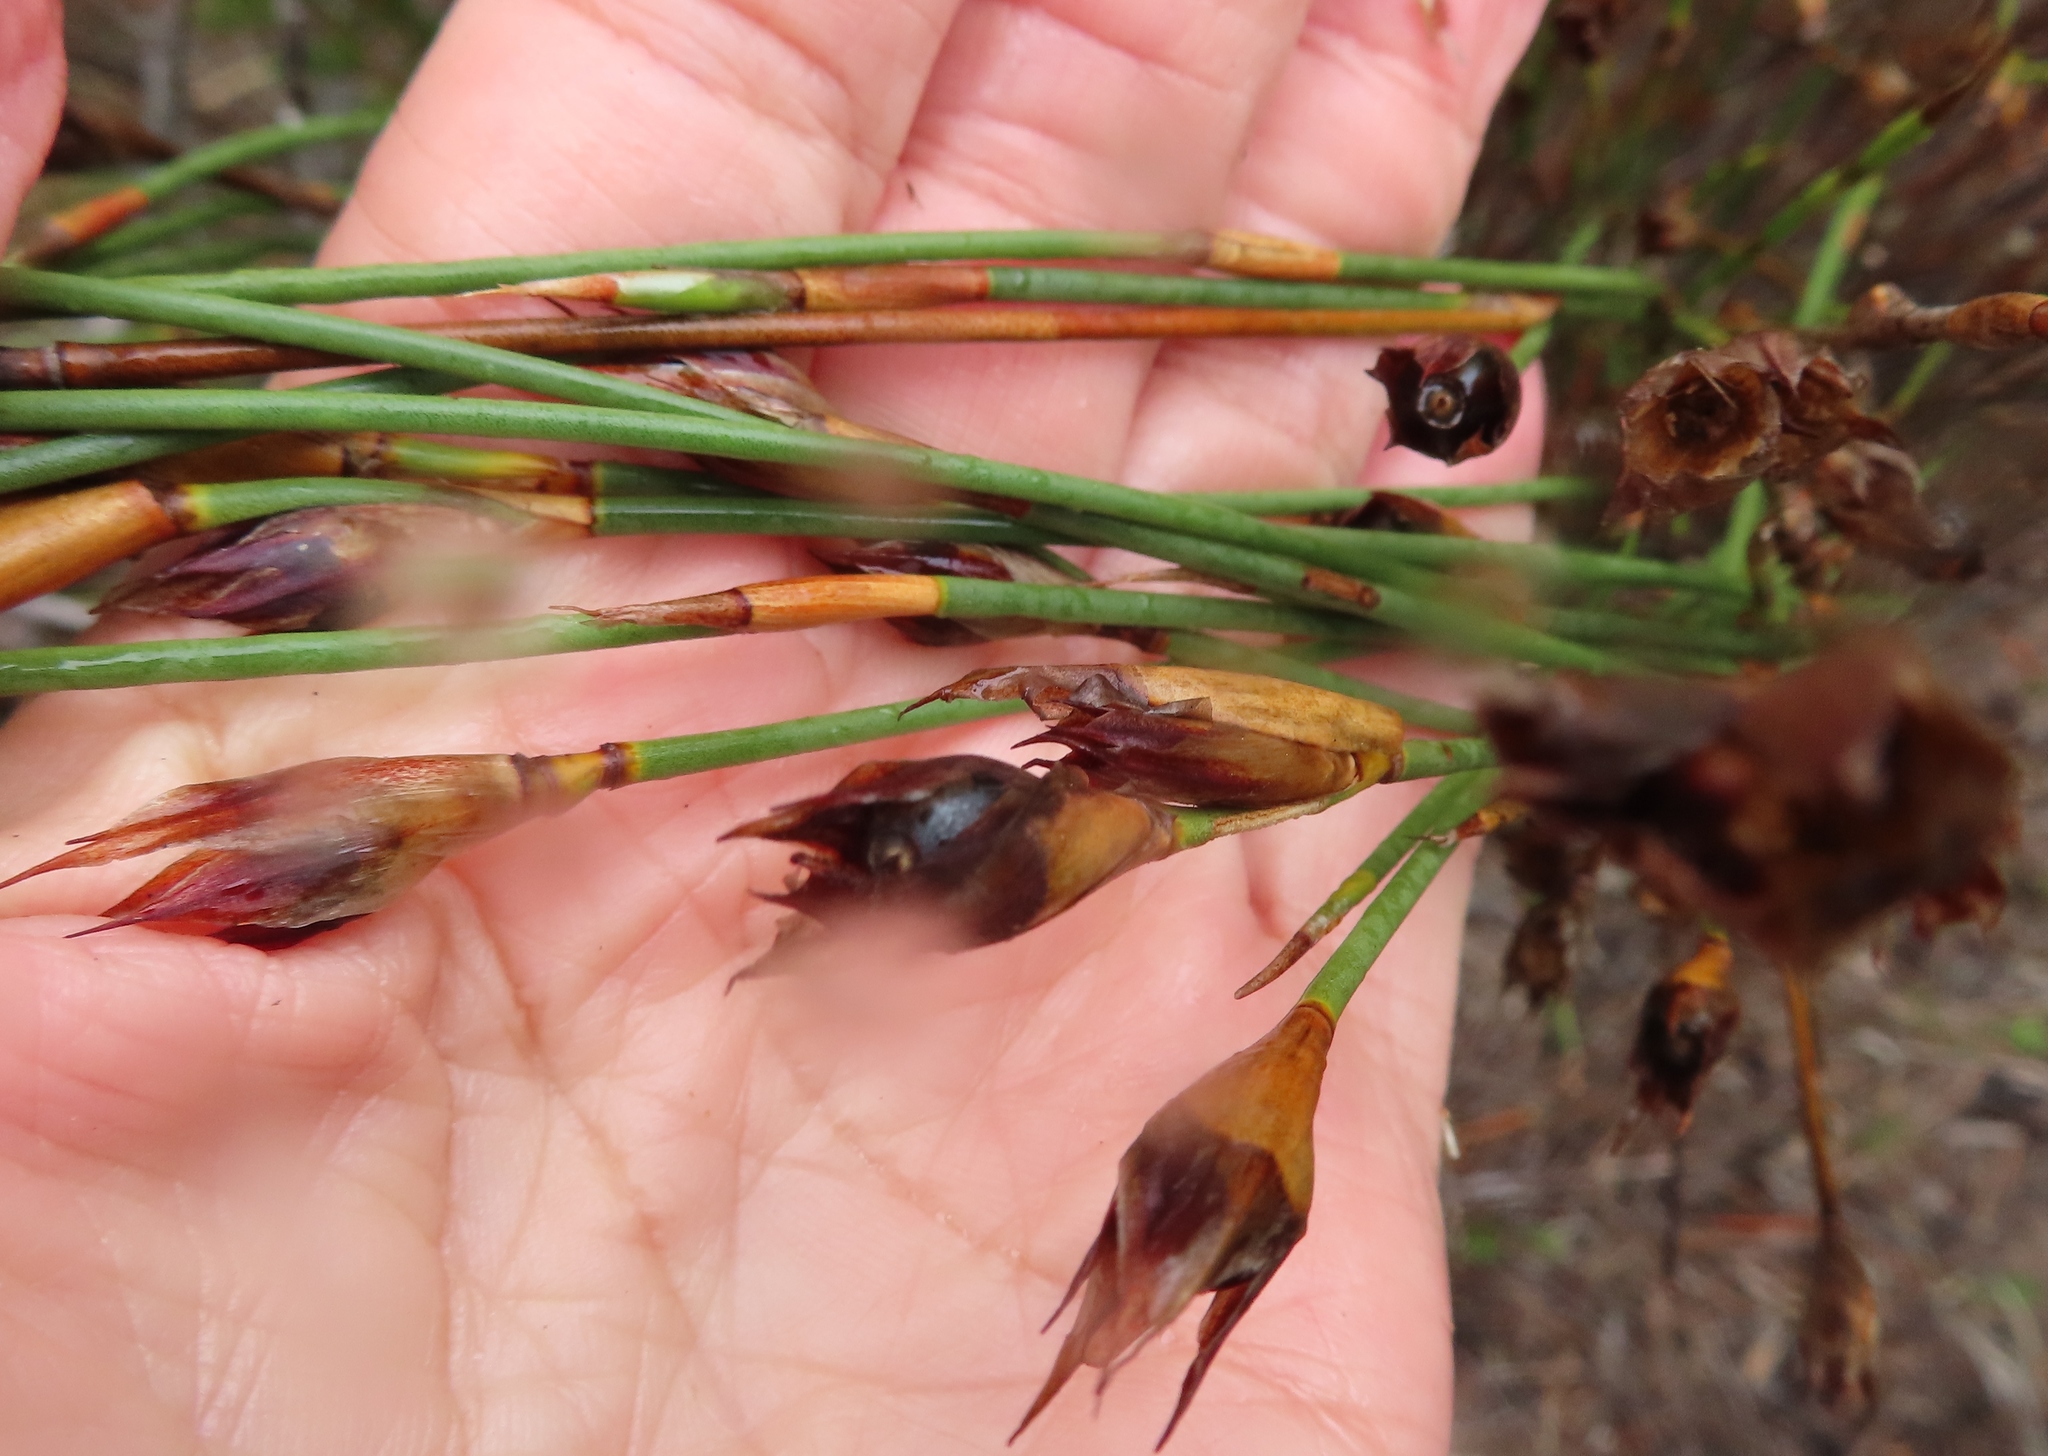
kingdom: Plantae
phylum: Tracheophyta
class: Liliopsida
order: Poales
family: Restionaceae
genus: Willdenowia
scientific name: Willdenowia teres
